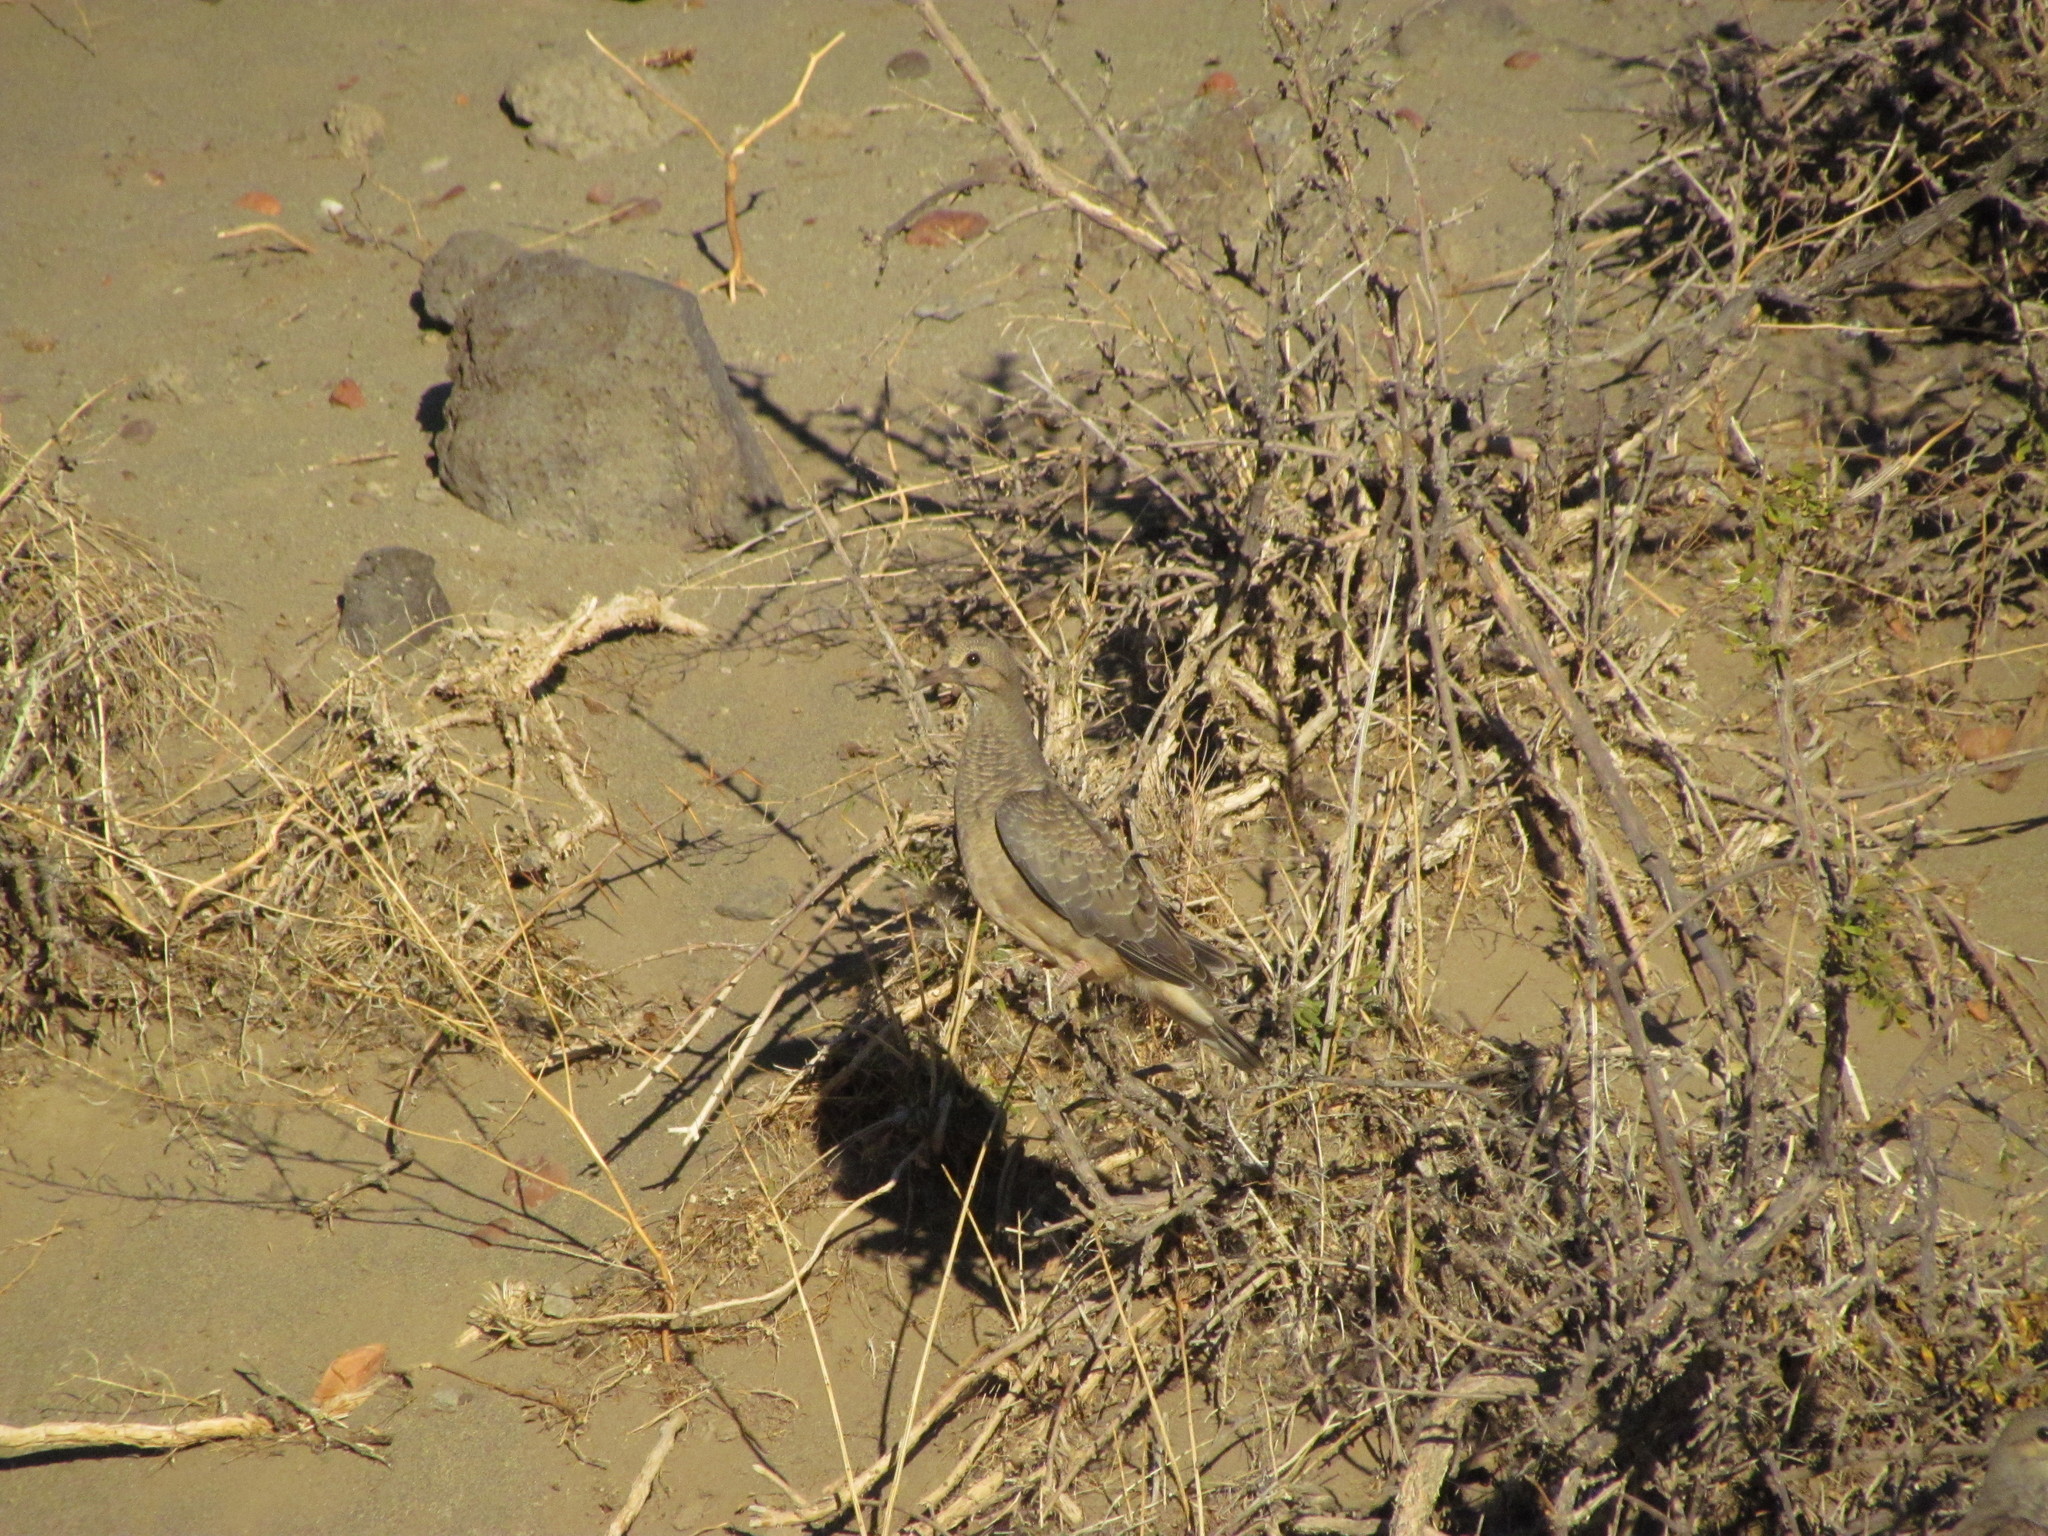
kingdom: Animalia
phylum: Chordata
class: Aves
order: Columbiformes
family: Columbidae
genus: Zenaida
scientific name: Zenaida auriculata
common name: Eared dove
